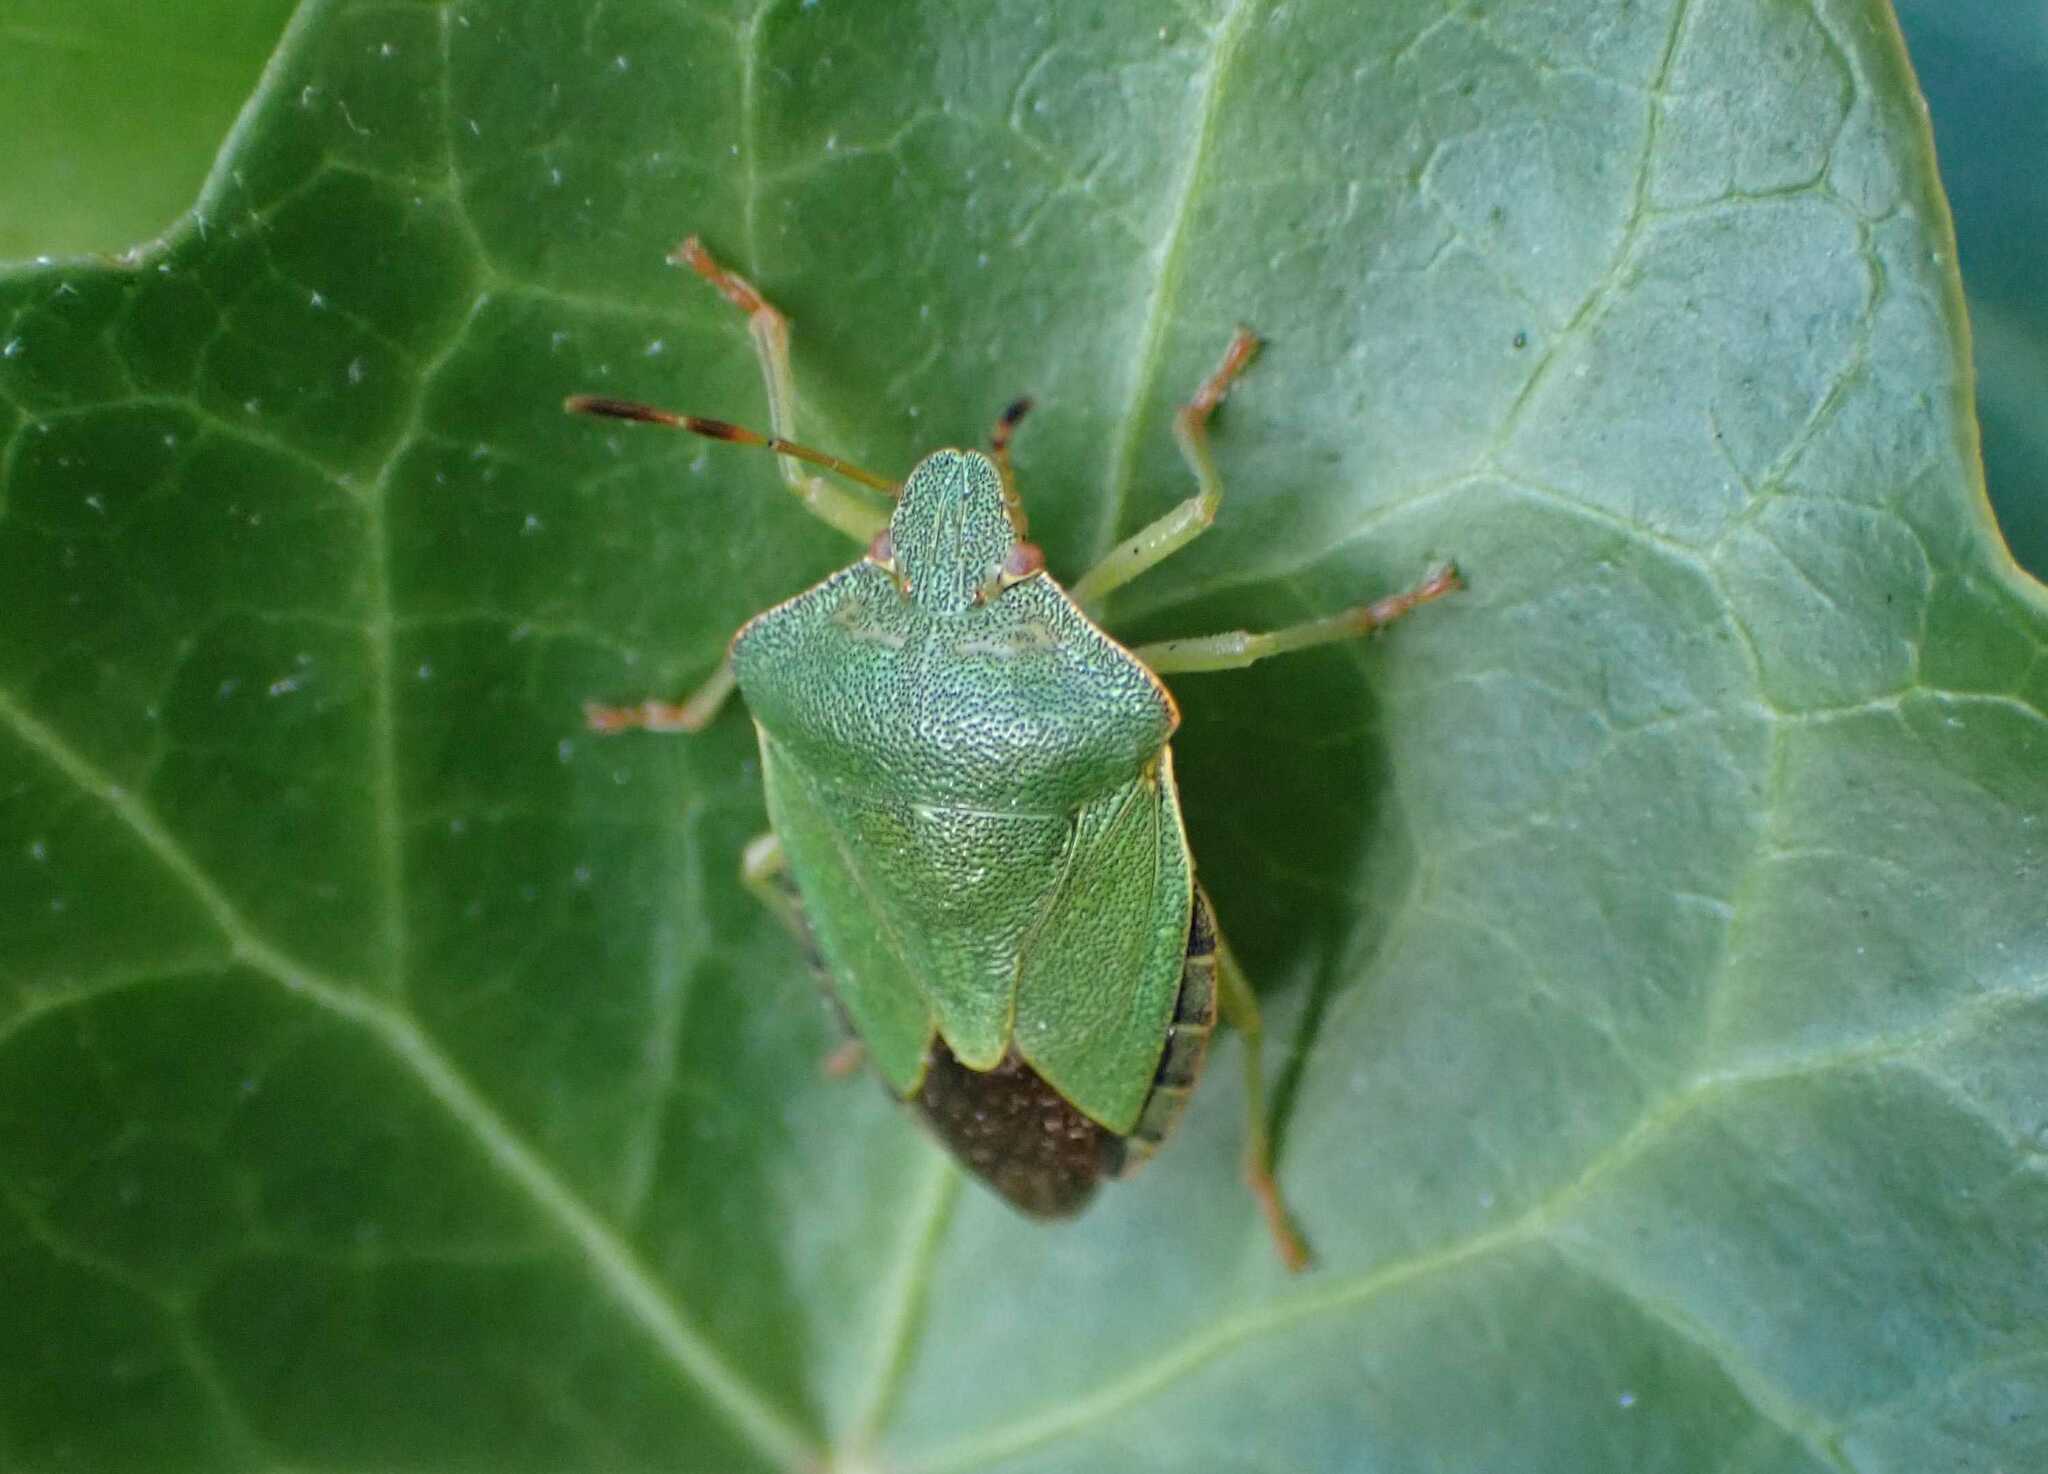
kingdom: Animalia
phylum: Arthropoda
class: Insecta
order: Hemiptera
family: Pentatomidae
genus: Palomena
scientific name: Palomena prasina
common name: Green shieldbug
